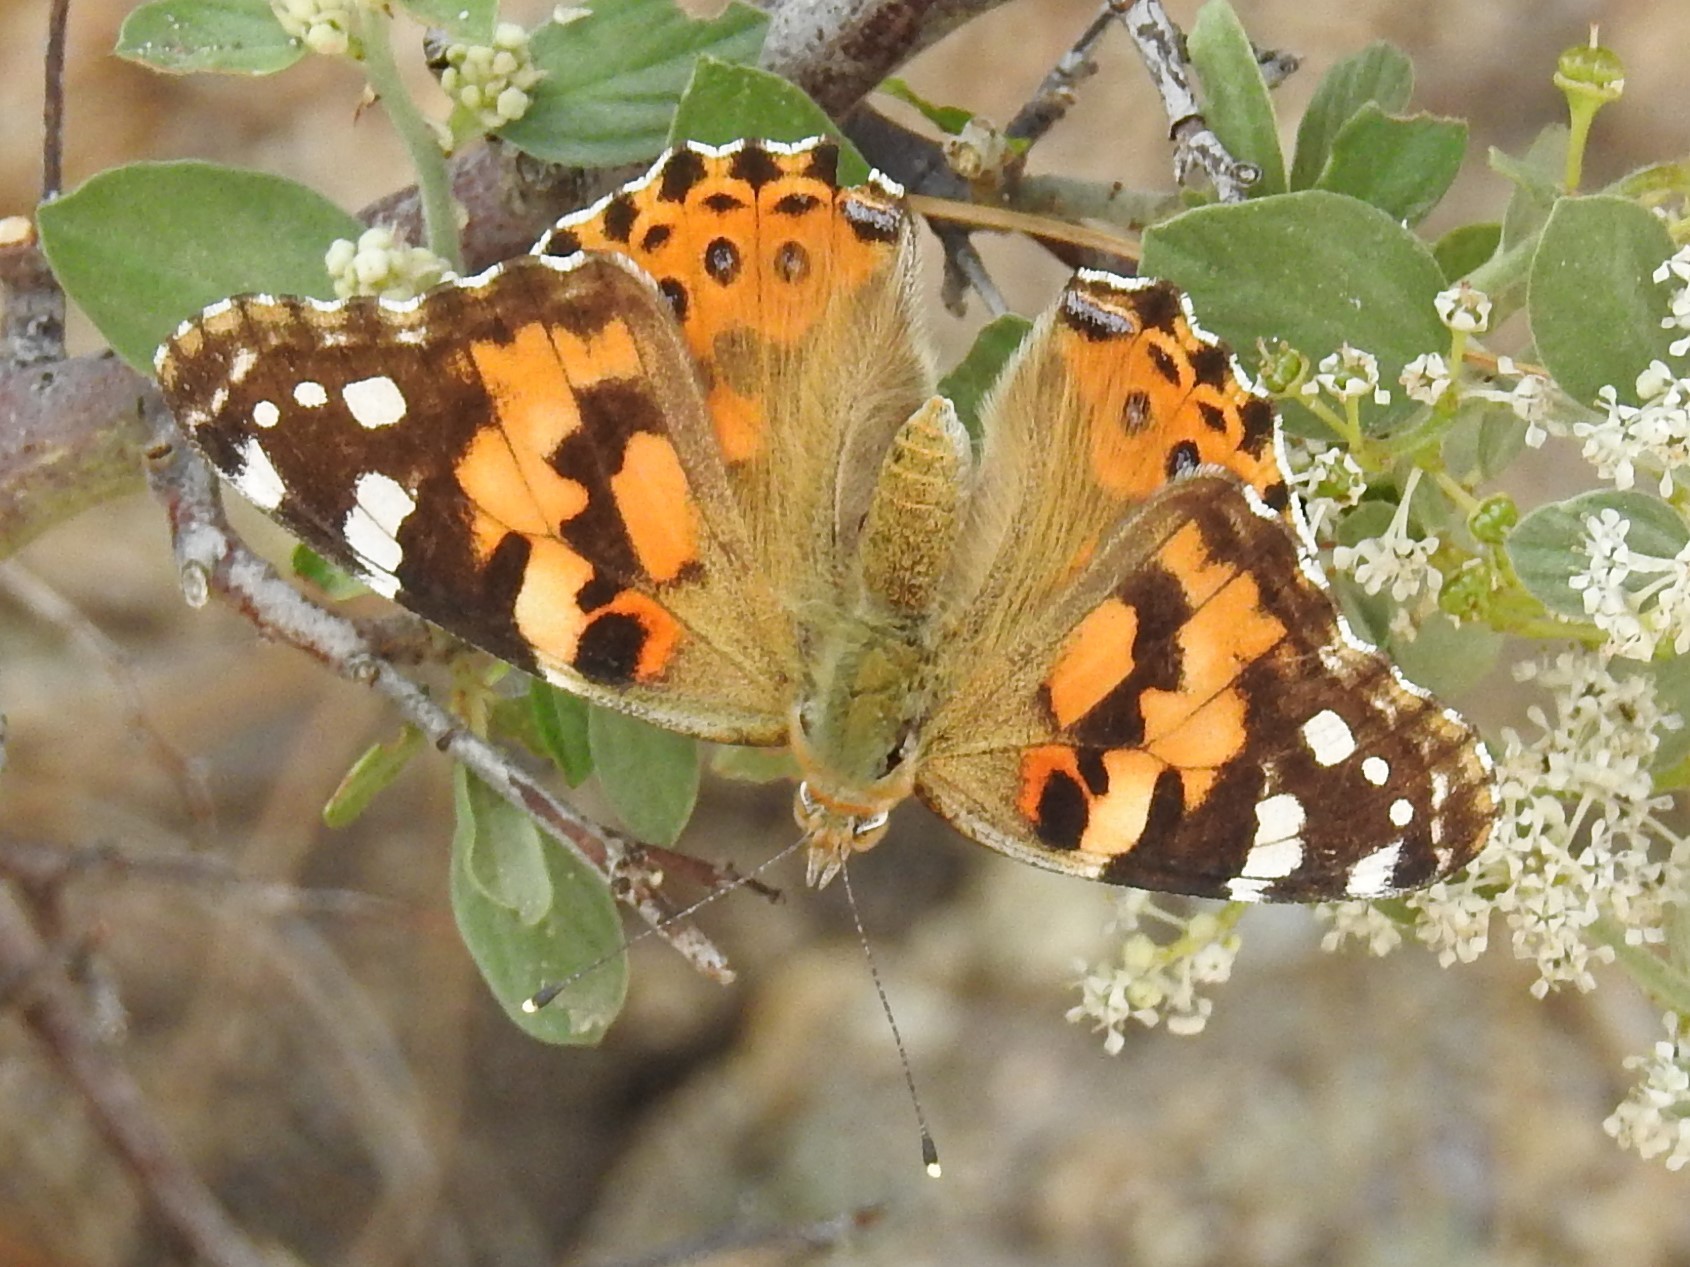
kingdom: Animalia
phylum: Arthropoda
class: Insecta
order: Lepidoptera
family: Nymphalidae
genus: Vanessa
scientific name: Vanessa cardui
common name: Painted lady
